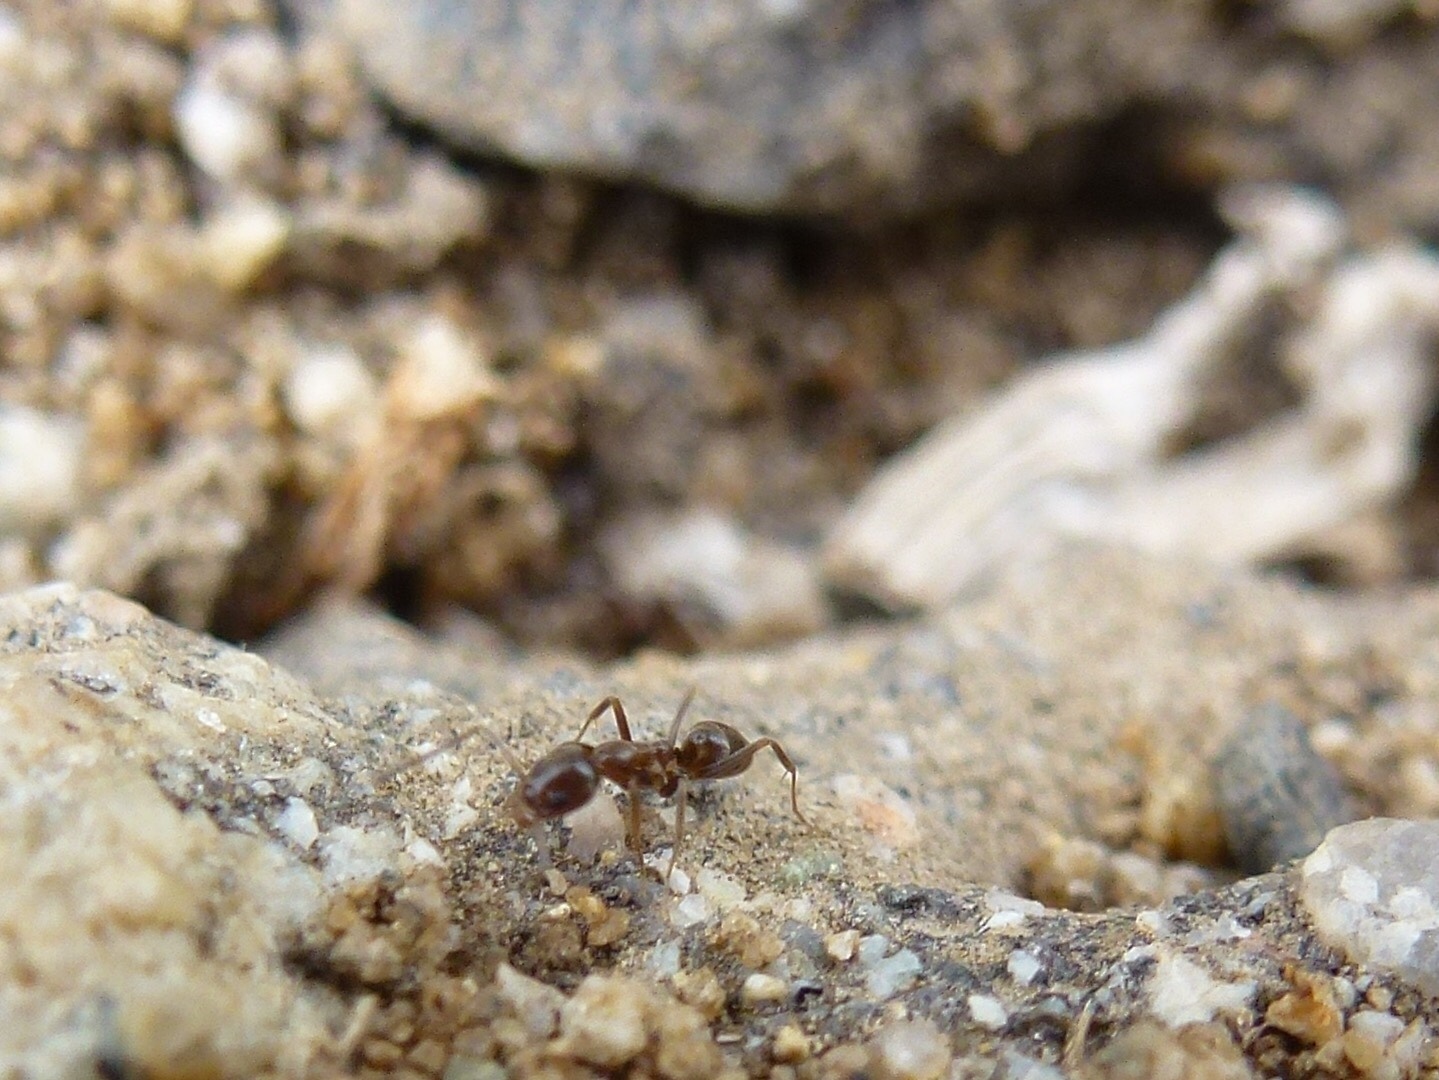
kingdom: Animalia
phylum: Arthropoda
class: Insecta
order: Hymenoptera
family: Formicidae
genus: Linepithema
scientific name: Linepithema humile
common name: Argentine ant
